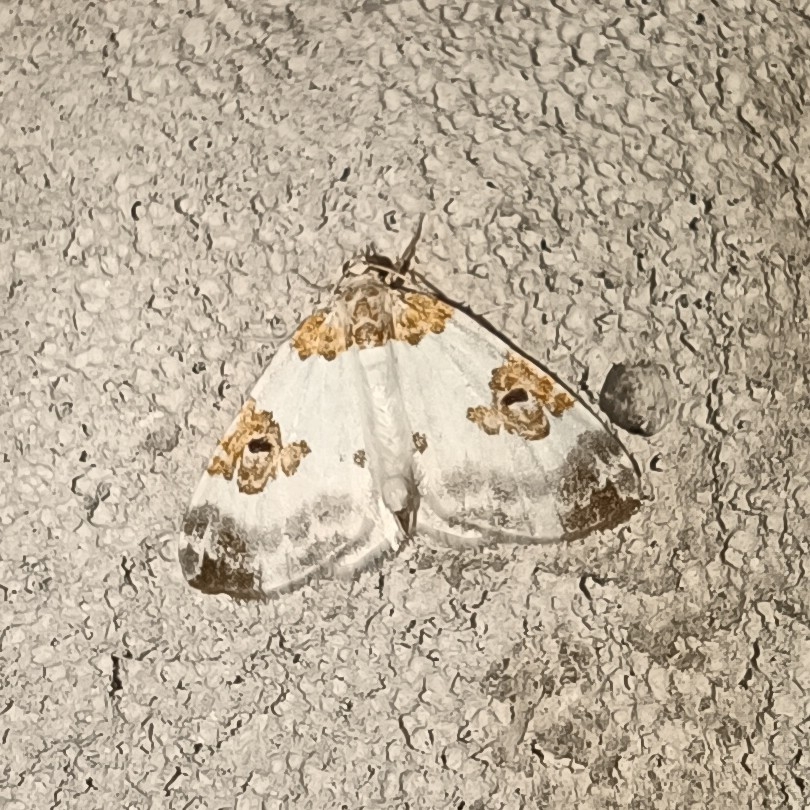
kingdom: Animalia
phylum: Arthropoda
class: Insecta
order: Lepidoptera
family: Geometridae
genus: Plemyria
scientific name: Plemyria rubiginata
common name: Blue-bordered carpet
